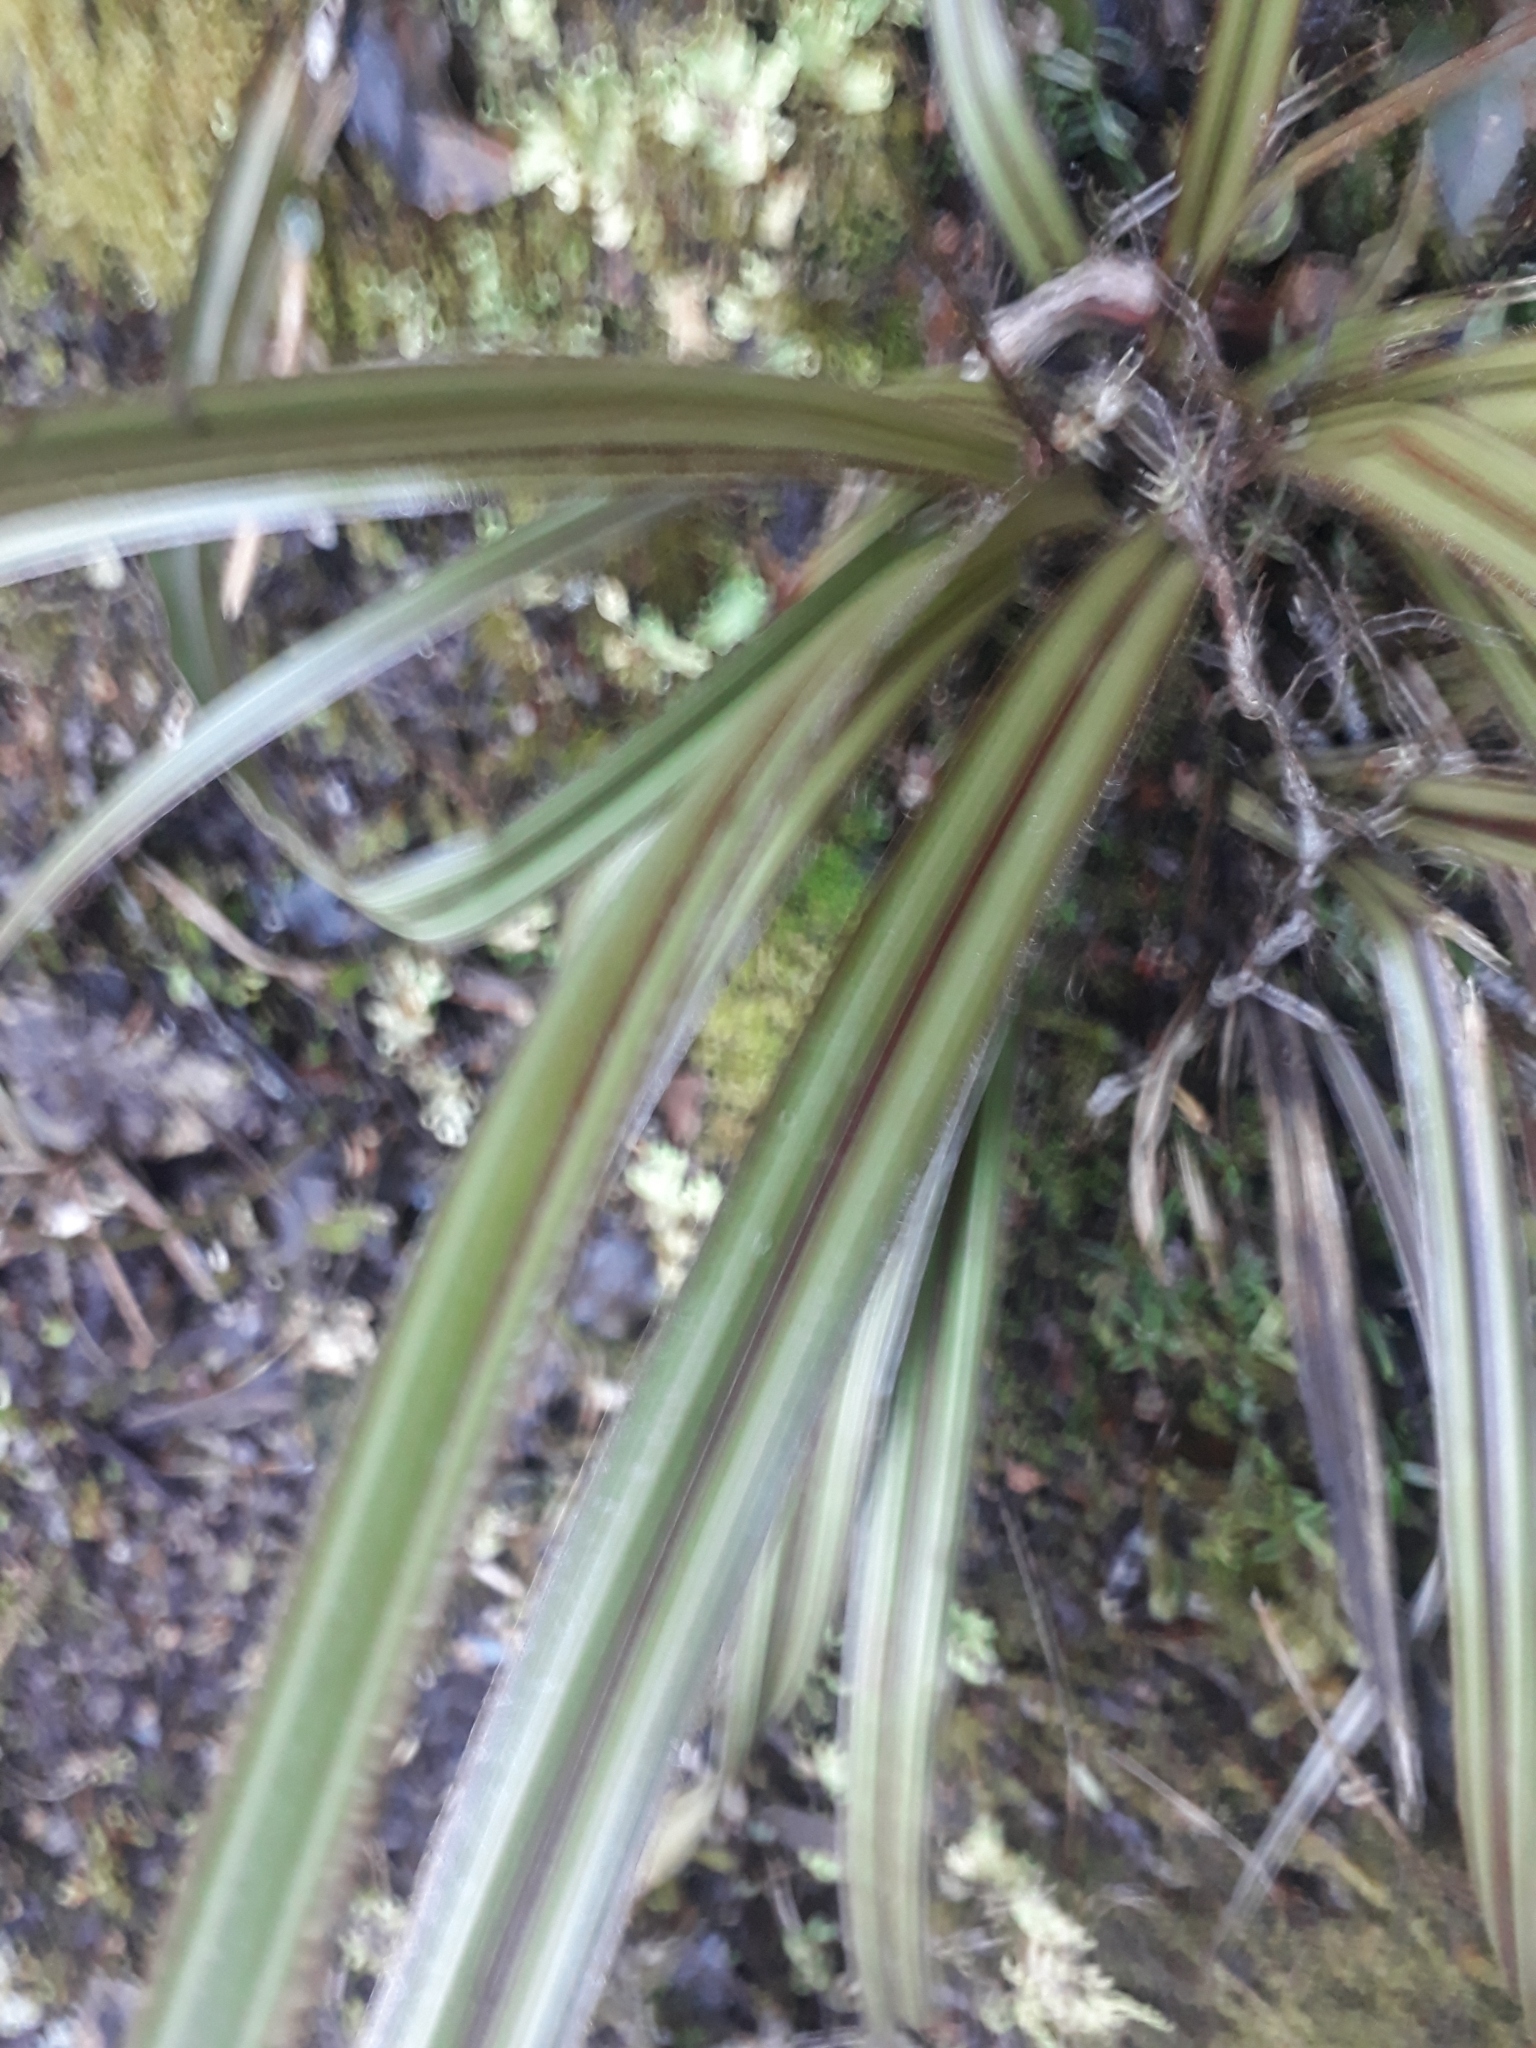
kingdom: Plantae
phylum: Tracheophyta
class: Liliopsida
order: Asparagales
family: Asteliaceae
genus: Astelia
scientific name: Astelia nervosa
